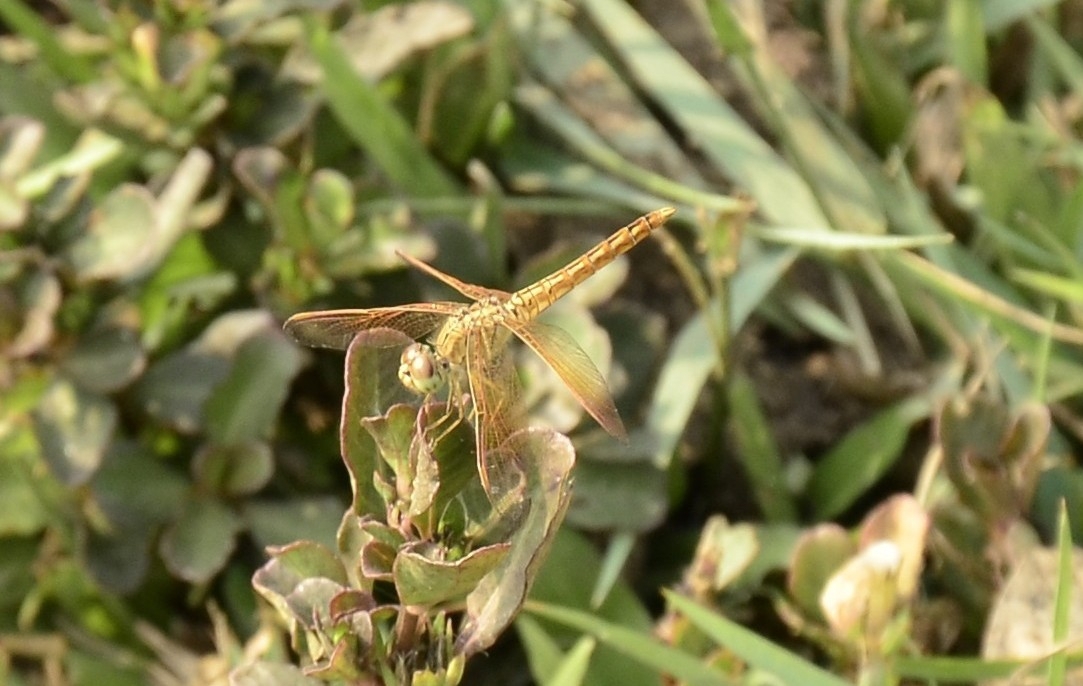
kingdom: Animalia
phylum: Arthropoda
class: Insecta
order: Odonata
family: Libellulidae
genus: Brachythemis
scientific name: Brachythemis contaminata
